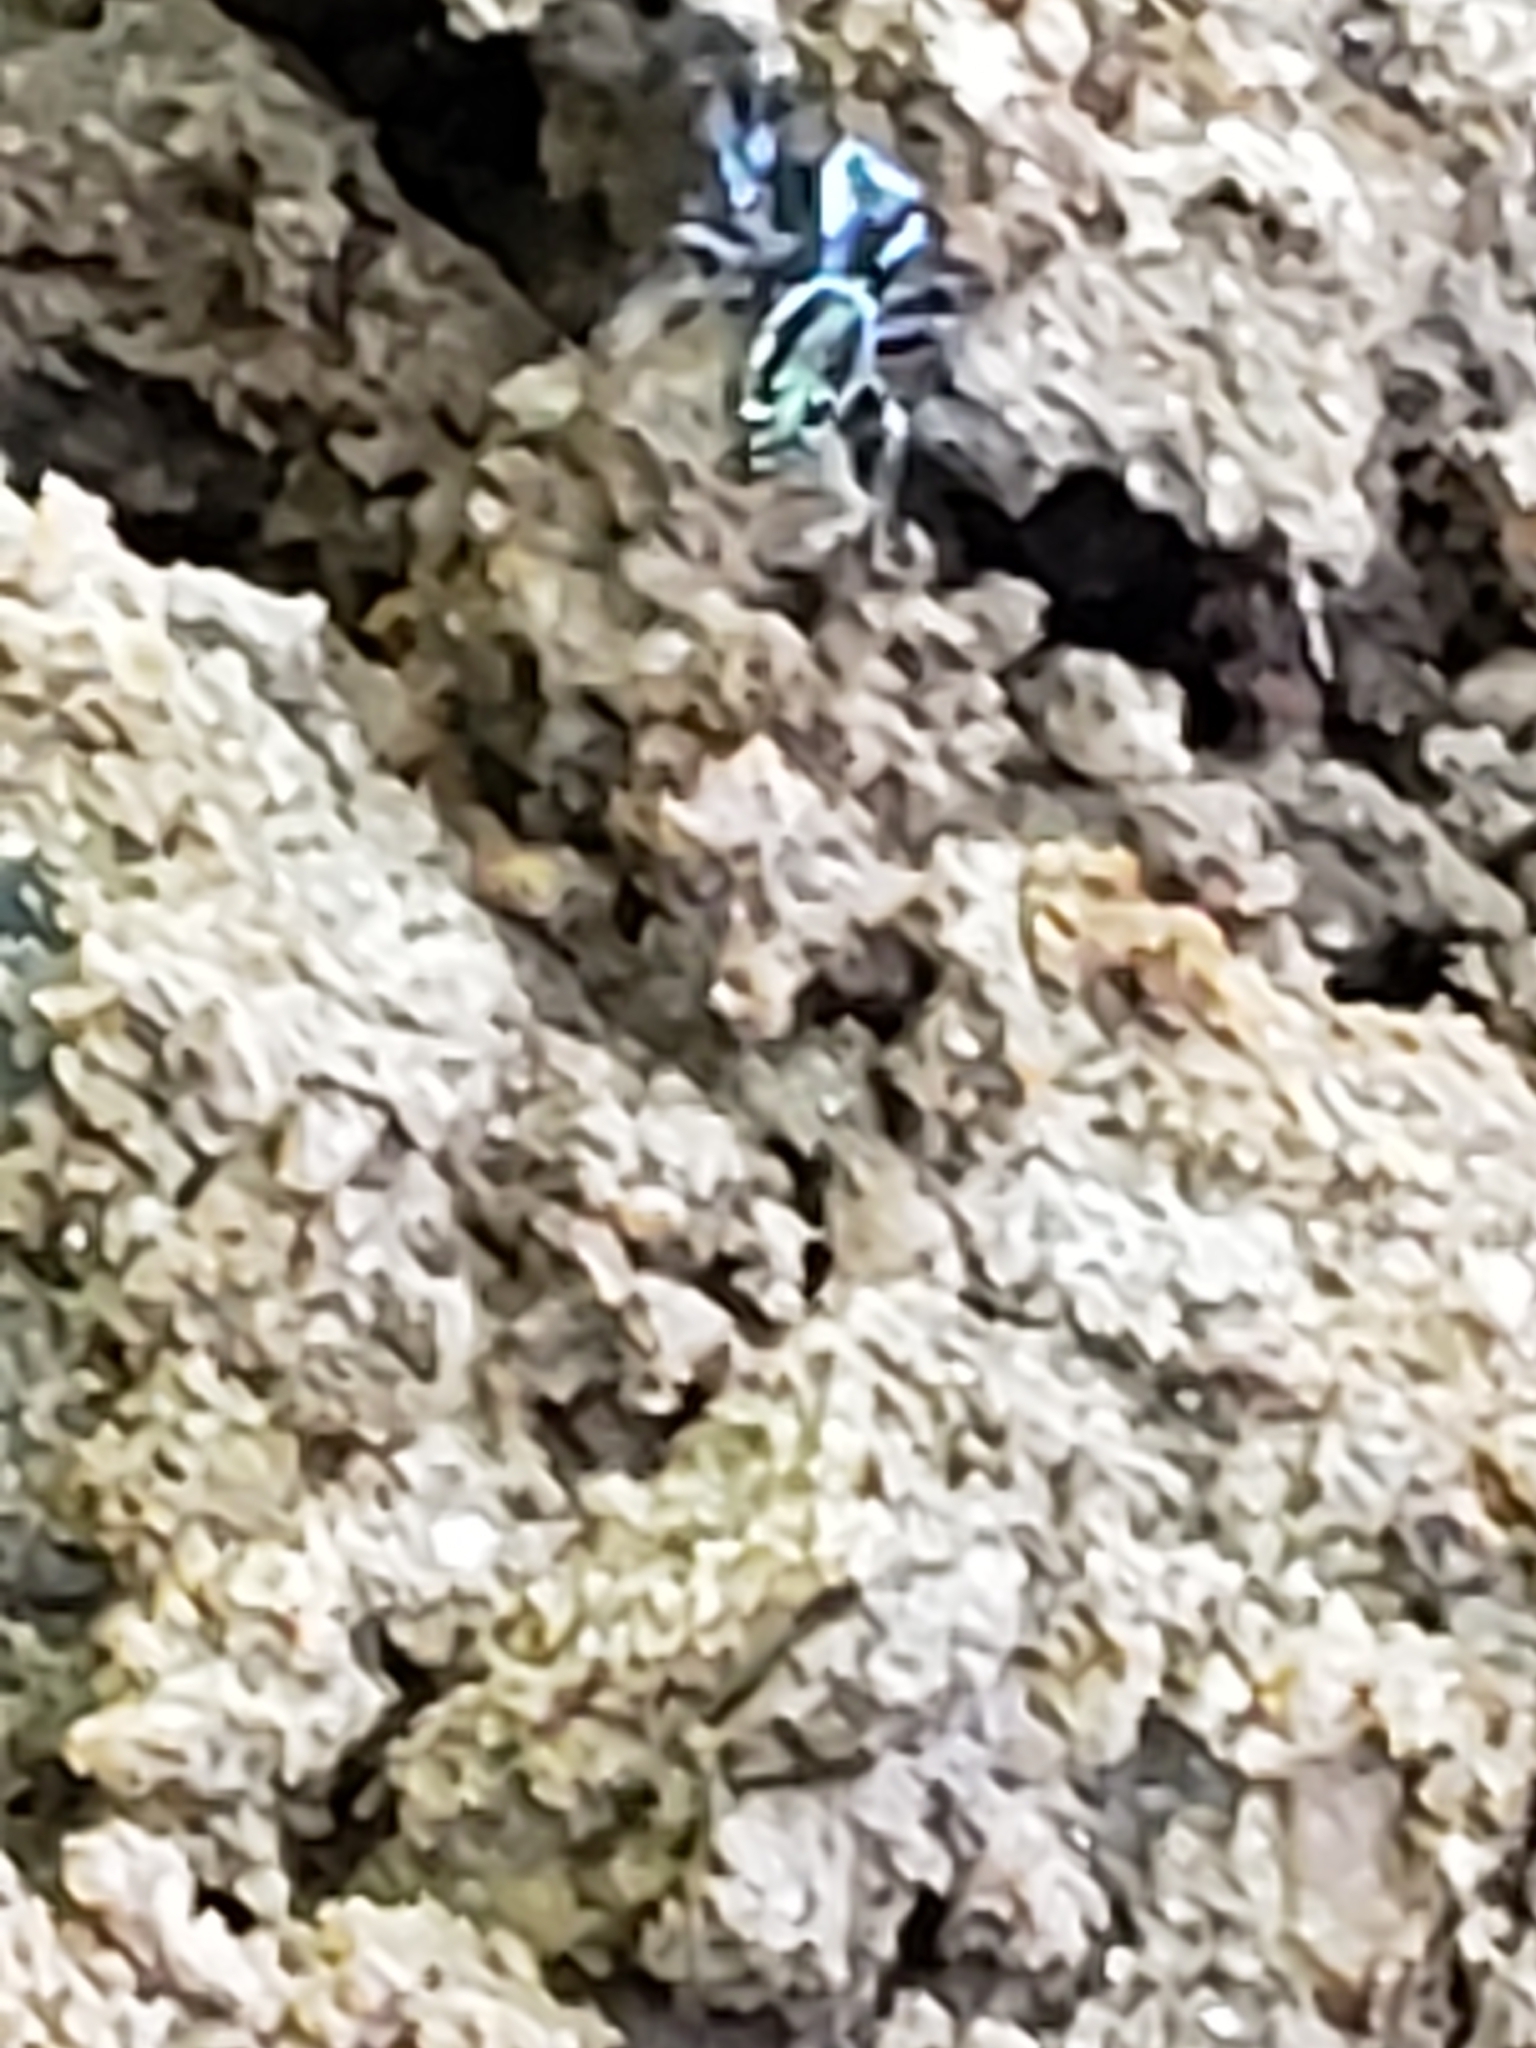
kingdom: Animalia
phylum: Arthropoda
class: Arachnida
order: Araneae
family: Salticidae
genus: Paraphidippus
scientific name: Paraphidippus aurantius
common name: Jumping spiders
